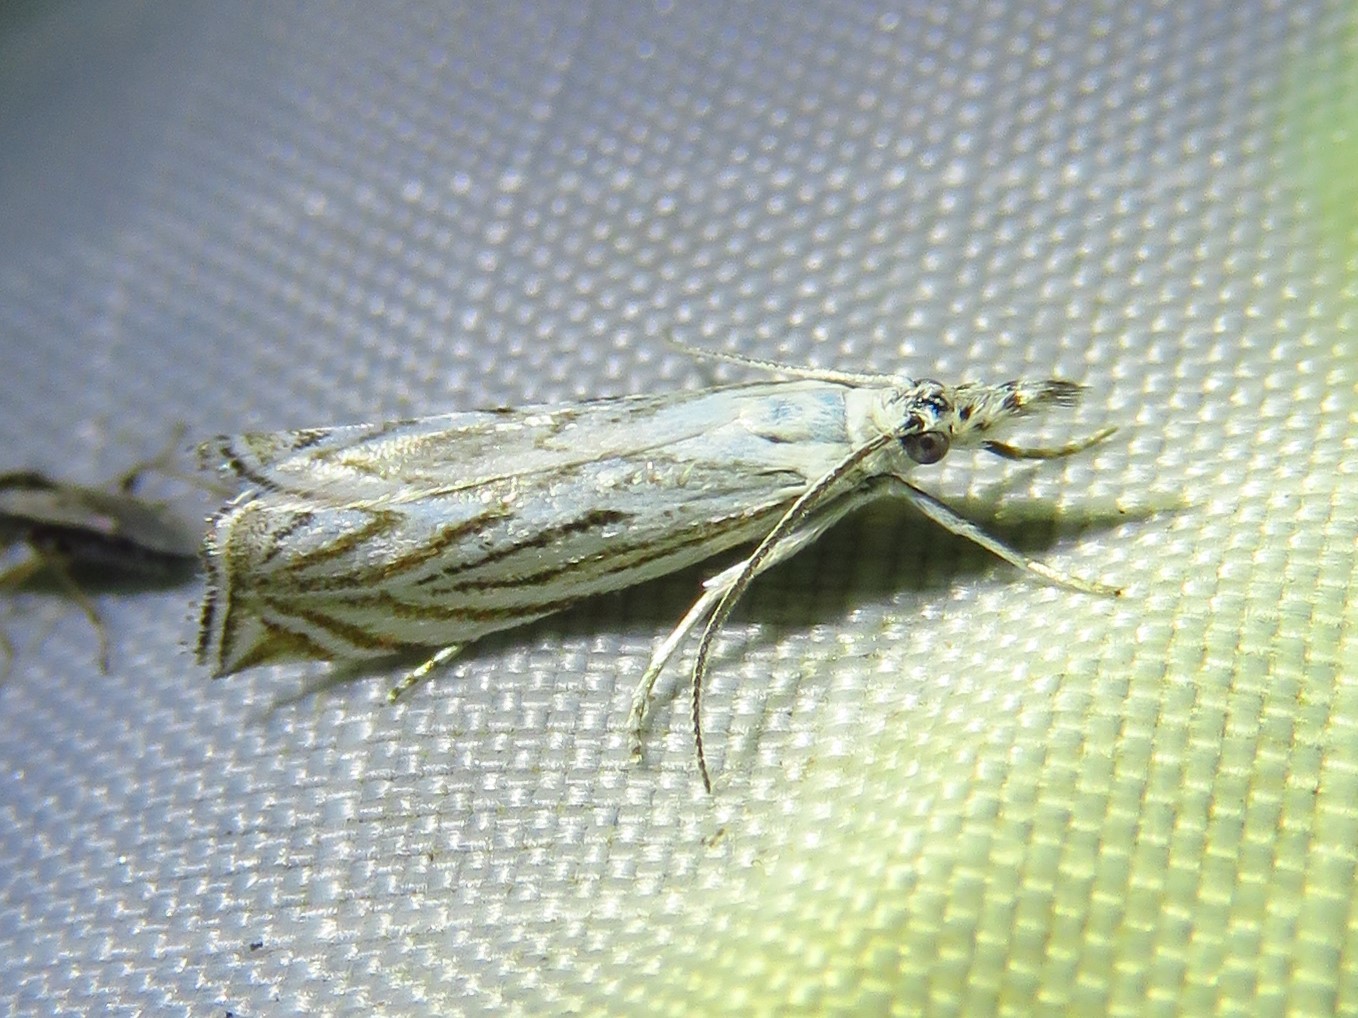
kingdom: Animalia
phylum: Arthropoda
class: Insecta
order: Lepidoptera
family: Crambidae
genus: Platytes
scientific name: Platytes vobisne
